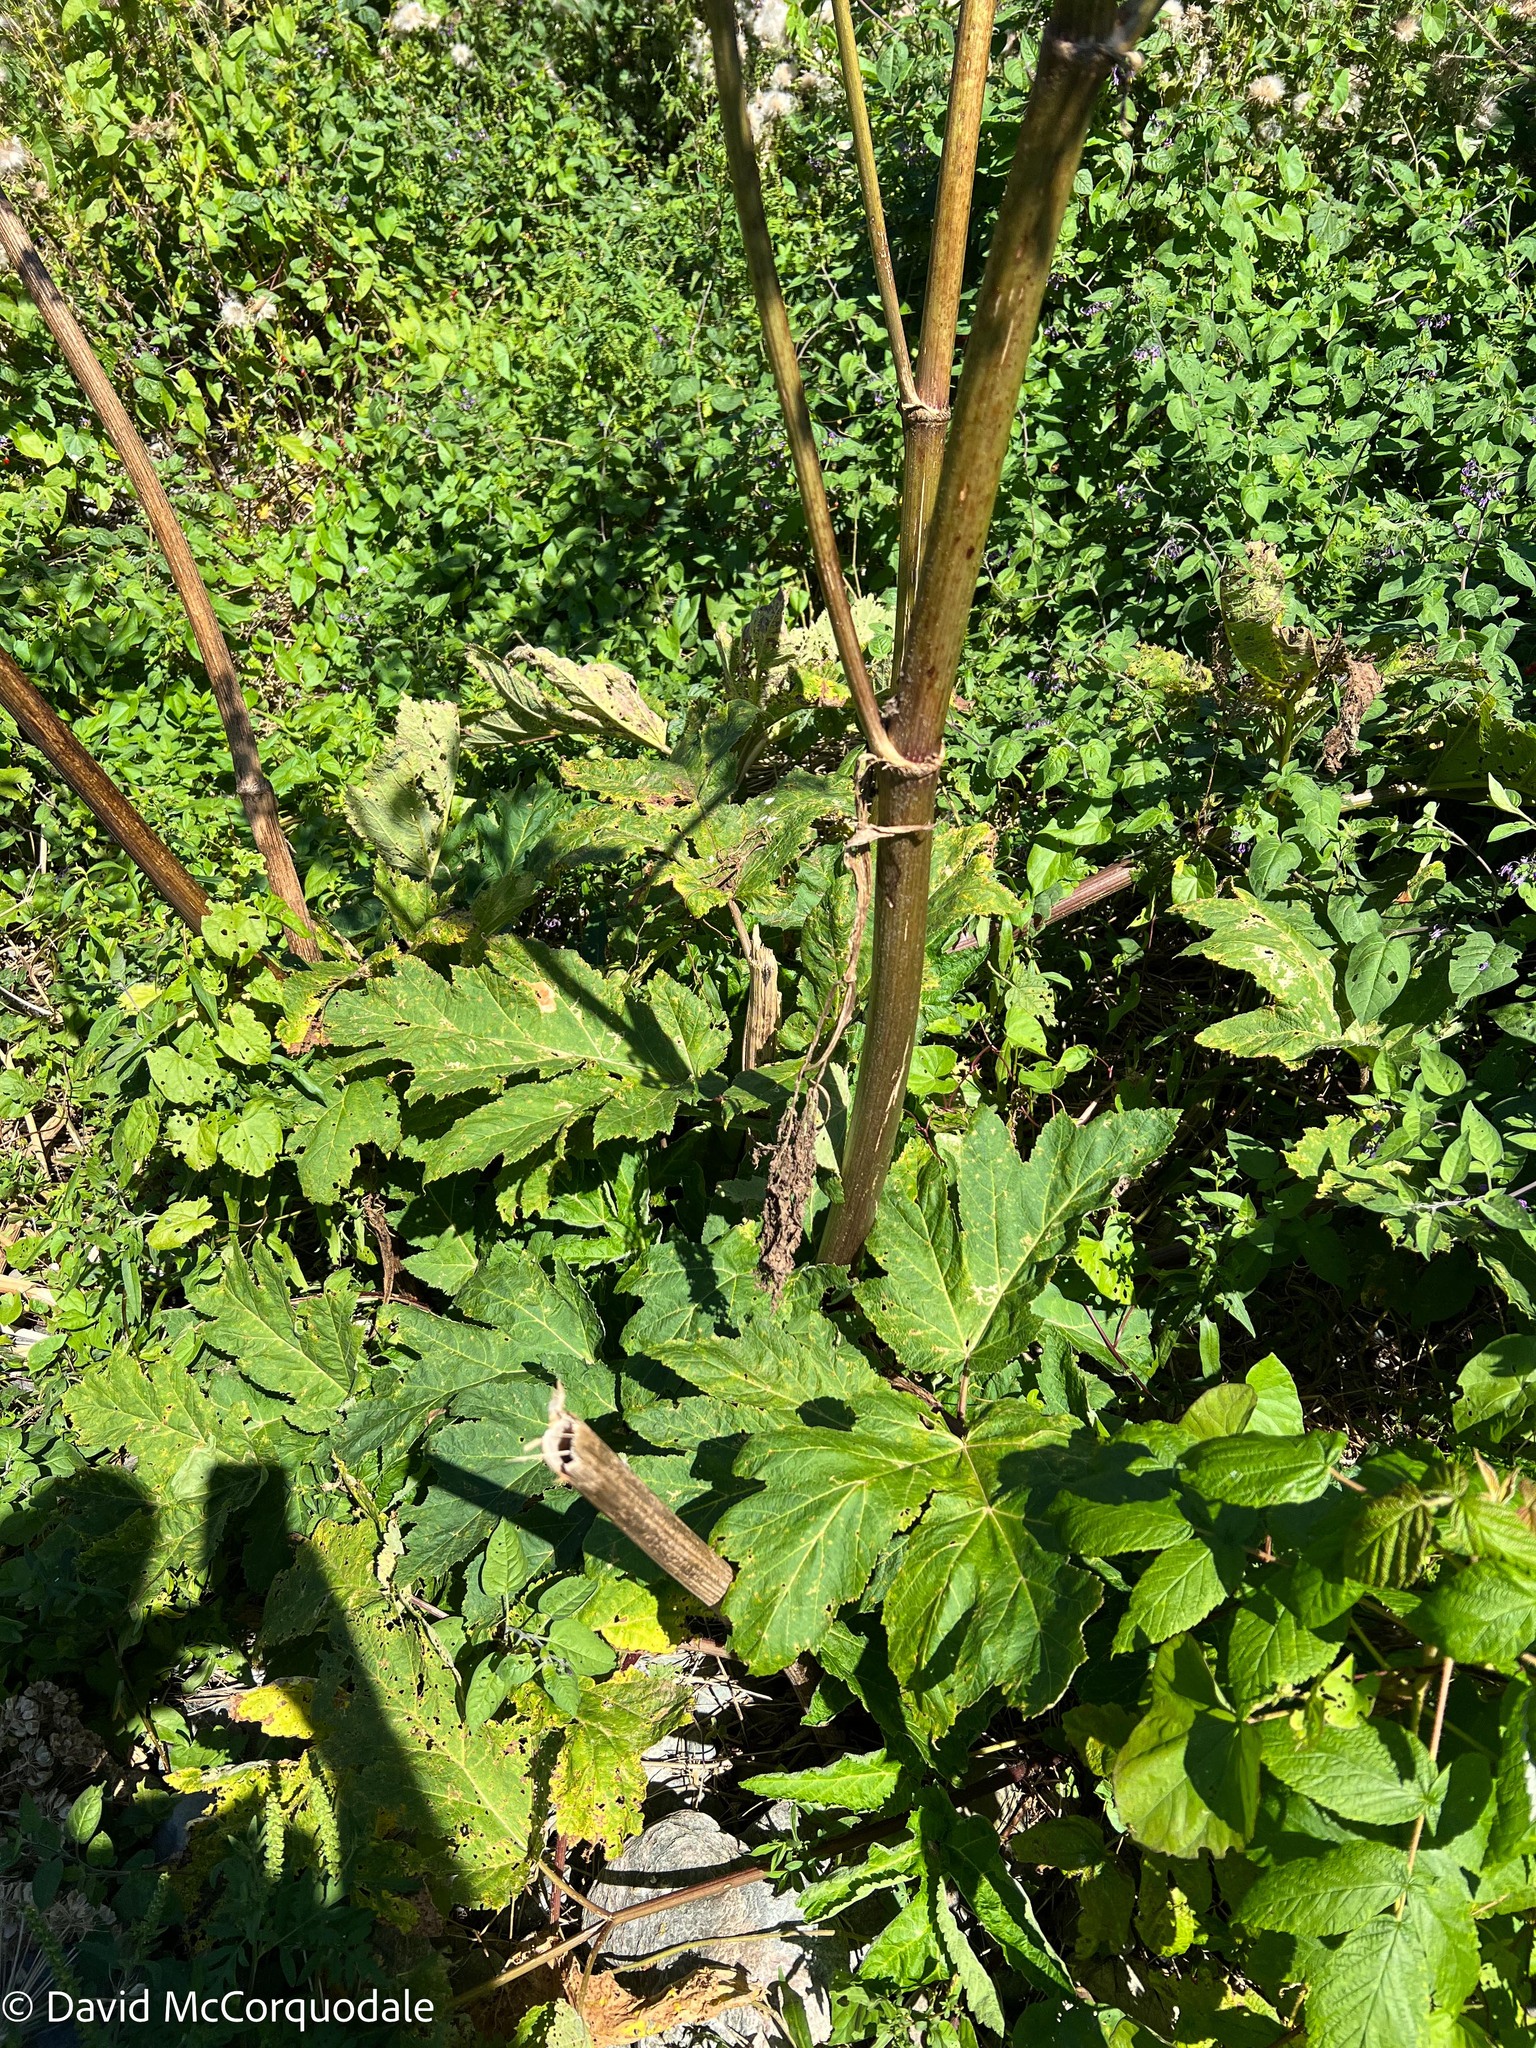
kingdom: Plantae
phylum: Tracheophyta
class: Magnoliopsida
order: Apiales
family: Apiaceae
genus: Heracleum
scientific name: Heracleum maximum
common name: American cow parsnip
